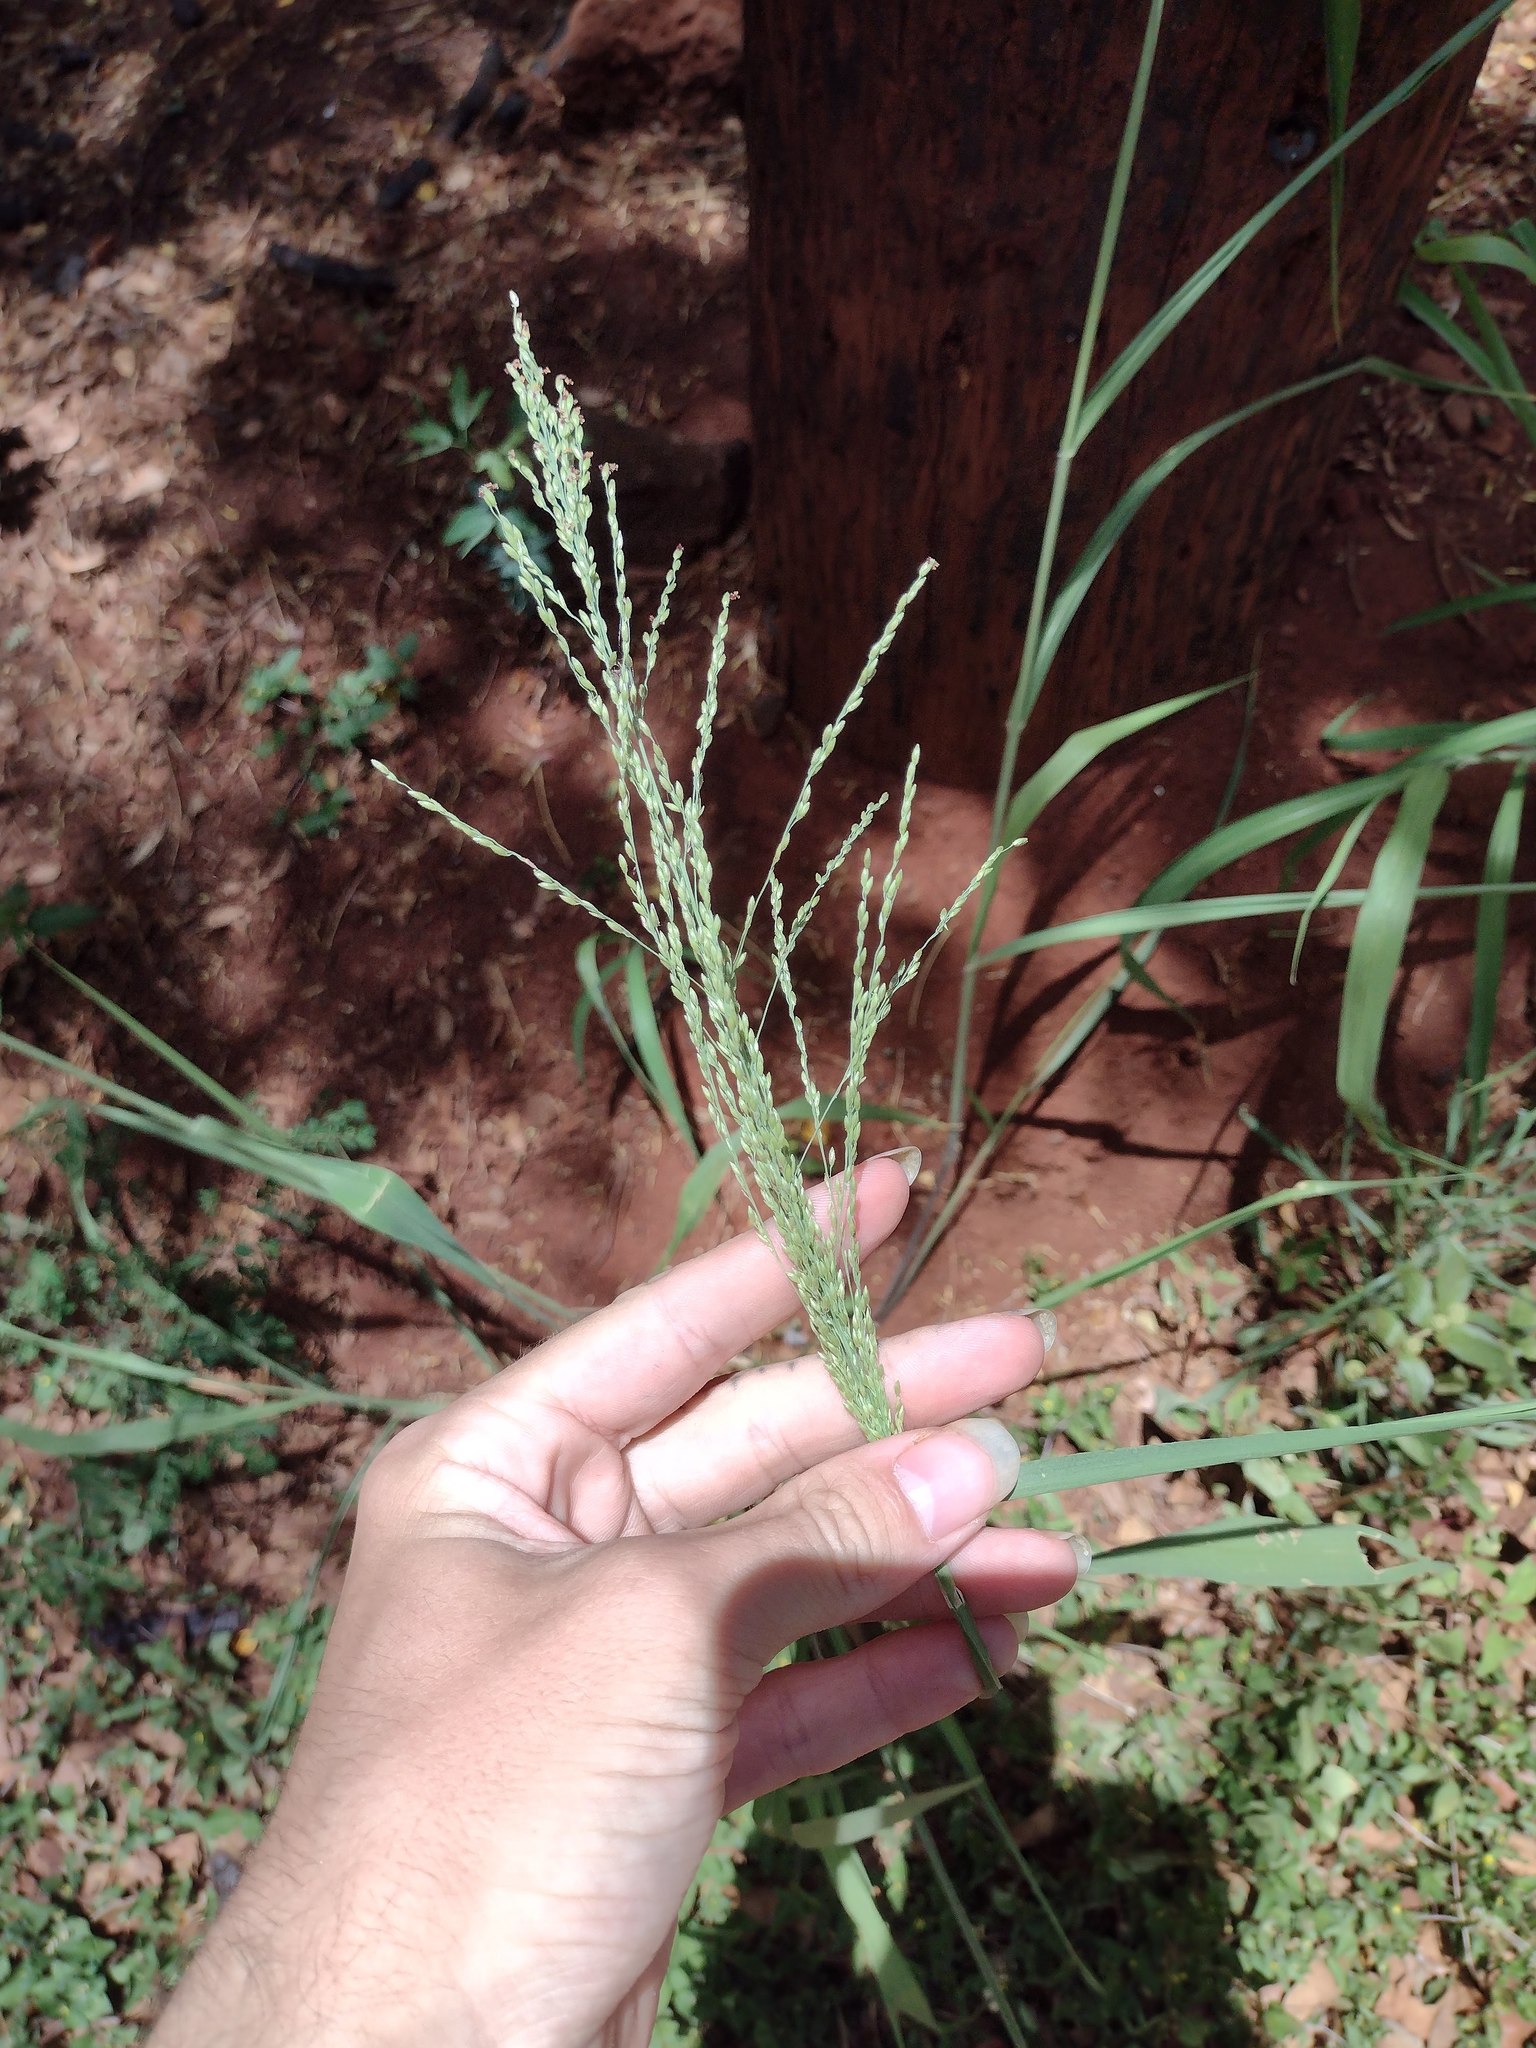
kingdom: Plantae
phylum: Tracheophyta
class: Liliopsida
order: Poales
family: Poaceae
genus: Megathyrsus
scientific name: Megathyrsus maximus
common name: Guineagrass
